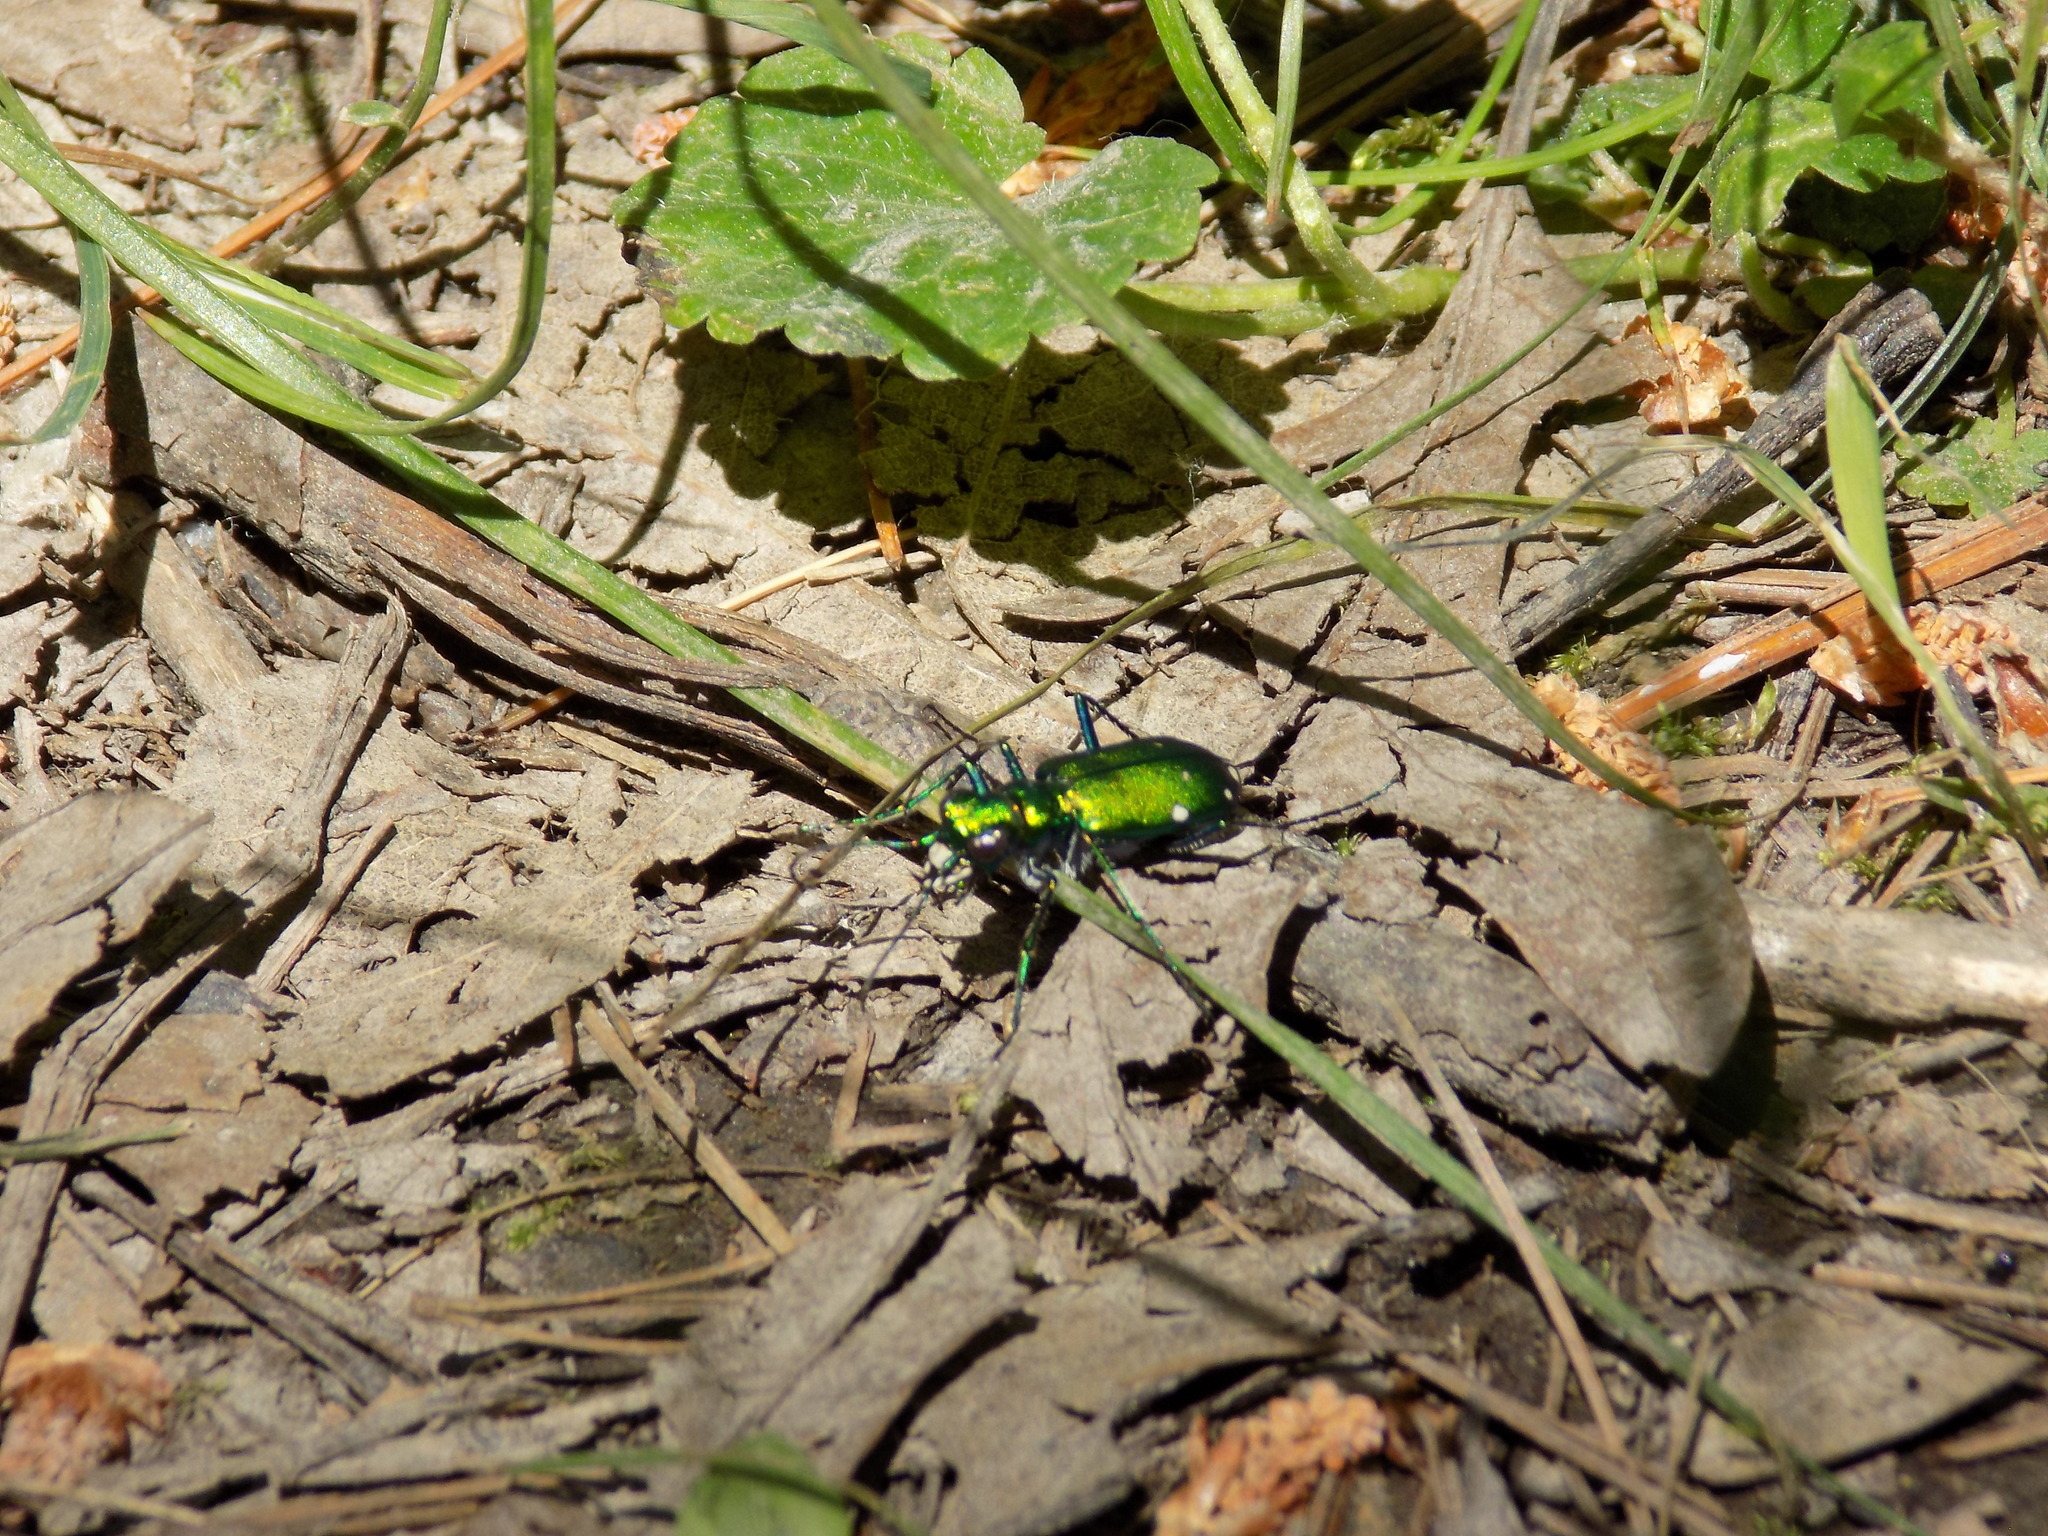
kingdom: Animalia
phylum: Arthropoda
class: Insecta
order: Coleoptera
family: Carabidae
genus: Cicindela
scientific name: Cicindela sexguttata
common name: Six-spotted tiger beetle
